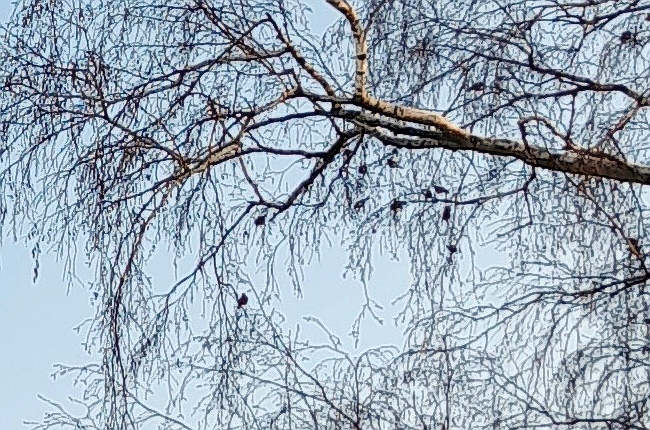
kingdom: Animalia
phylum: Chordata
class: Aves
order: Passeriformes
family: Fringillidae
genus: Acanthis
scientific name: Acanthis flammea
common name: Common redpoll
